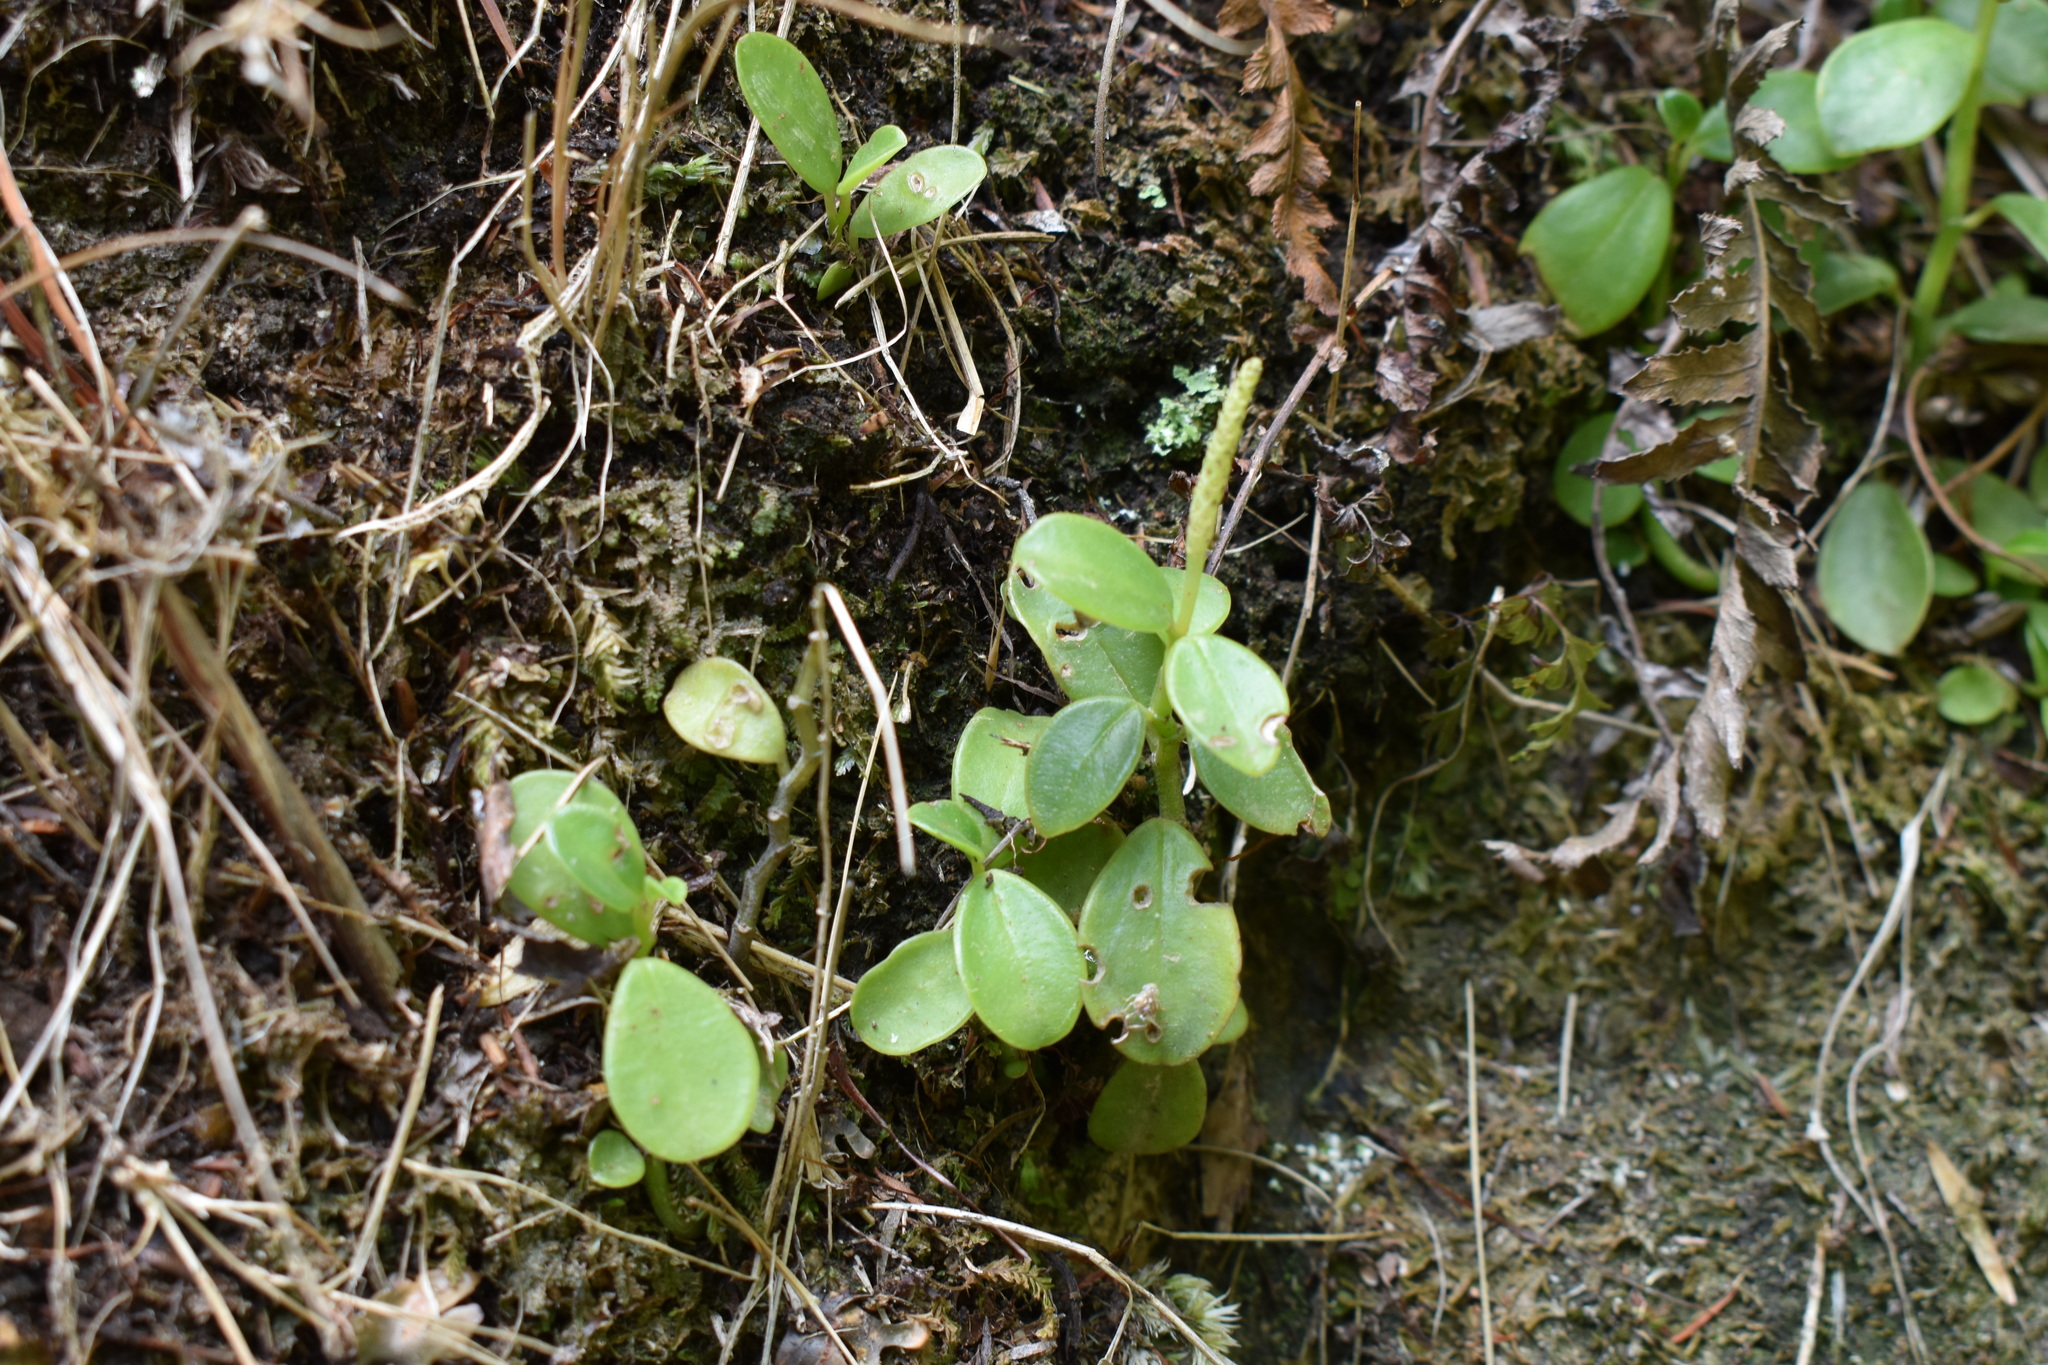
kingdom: Plantae
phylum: Tracheophyta
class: Magnoliopsida
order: Piperales
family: Piperaceae
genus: Peperomia
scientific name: Peperomia urvilleana
